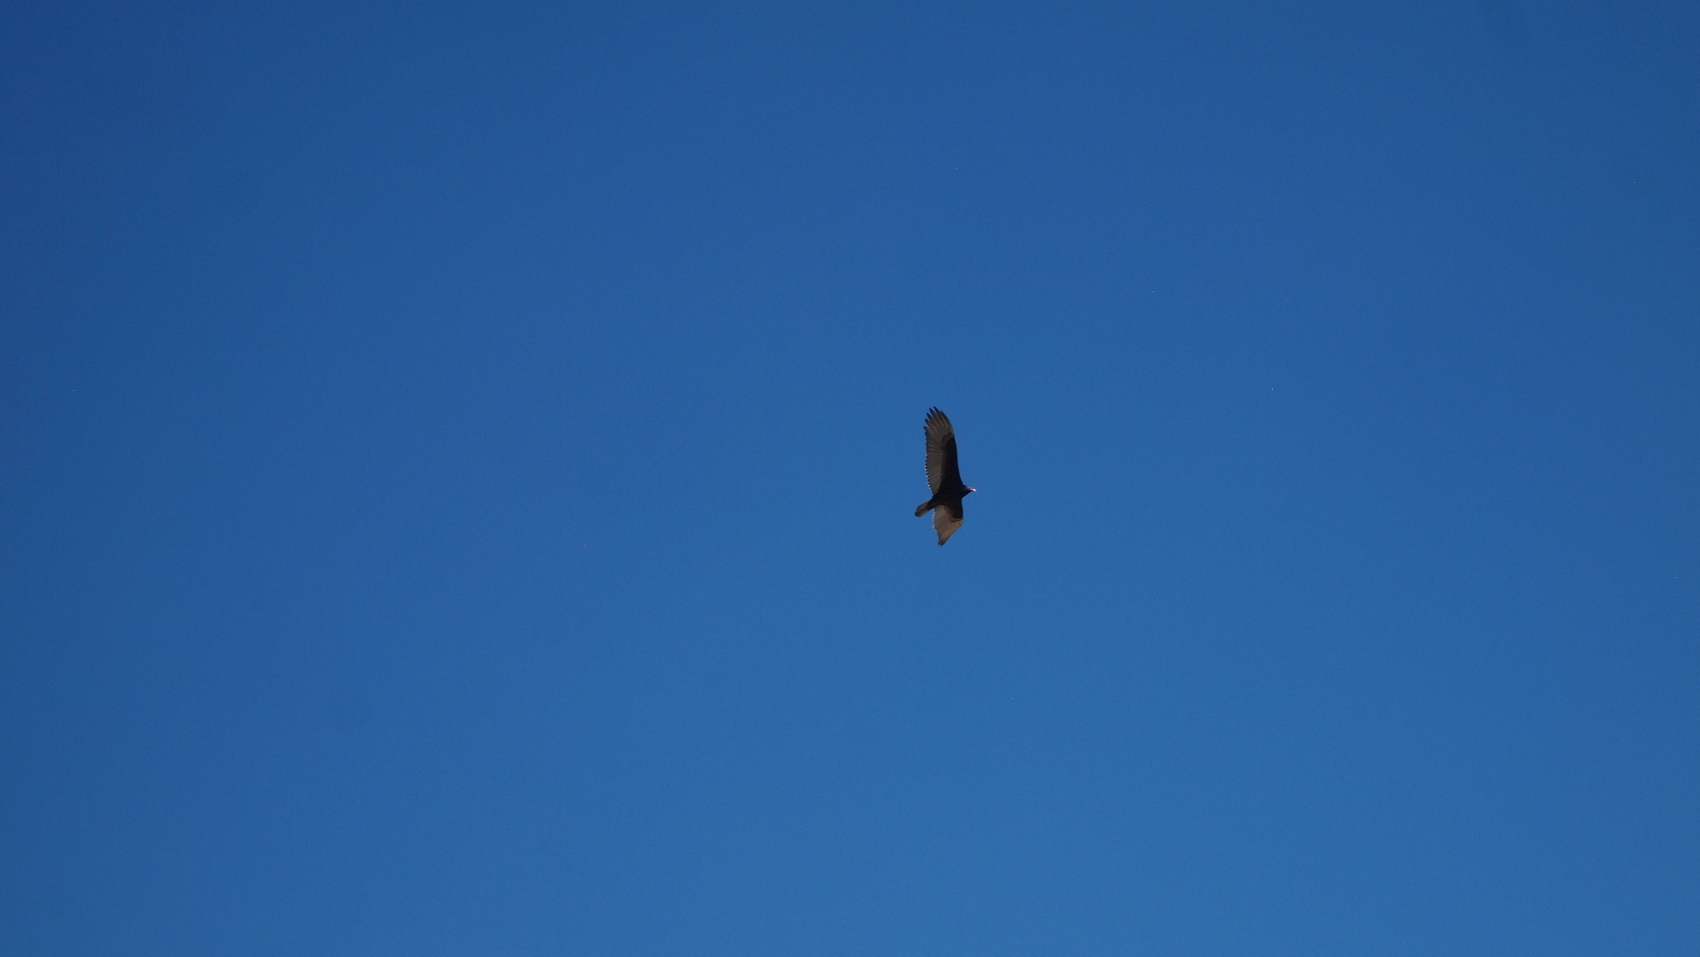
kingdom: Animalia
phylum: Chordata
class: Aves
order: Accipitriformes
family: Cathartidae
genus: Cathartes
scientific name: Cathartes aura
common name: Turkey vulture
